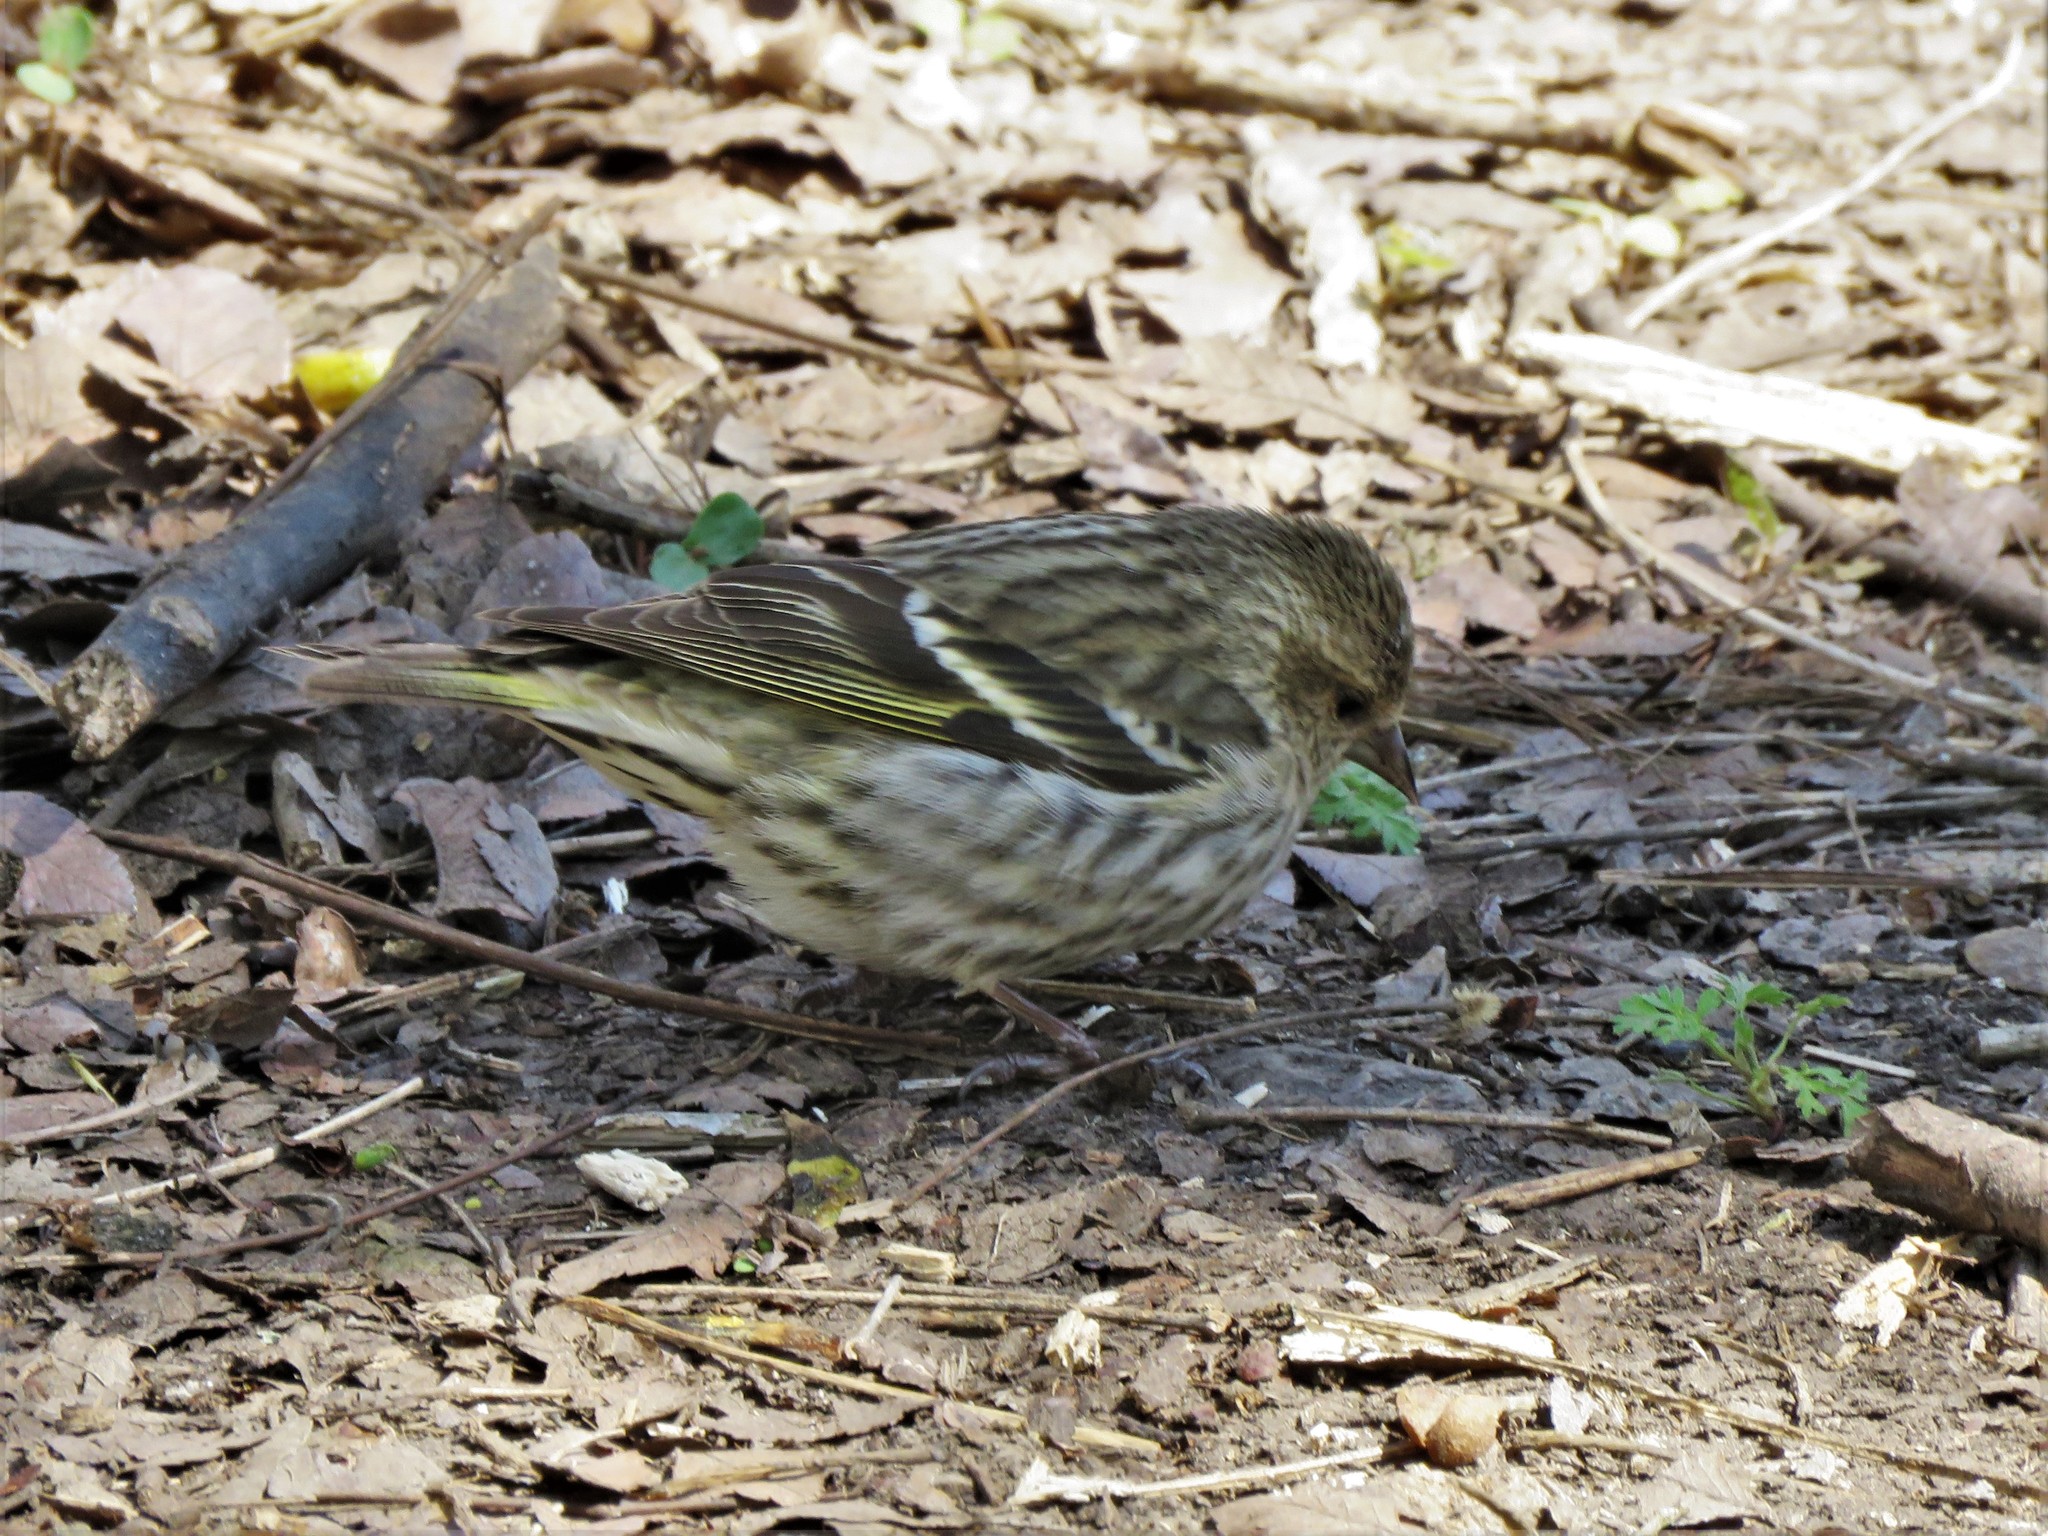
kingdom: Animalia
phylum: Chordata
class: Aves
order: Passeriformes
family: Fringillidae
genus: Spinus
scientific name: Spinus pinus
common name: Pine siskin
